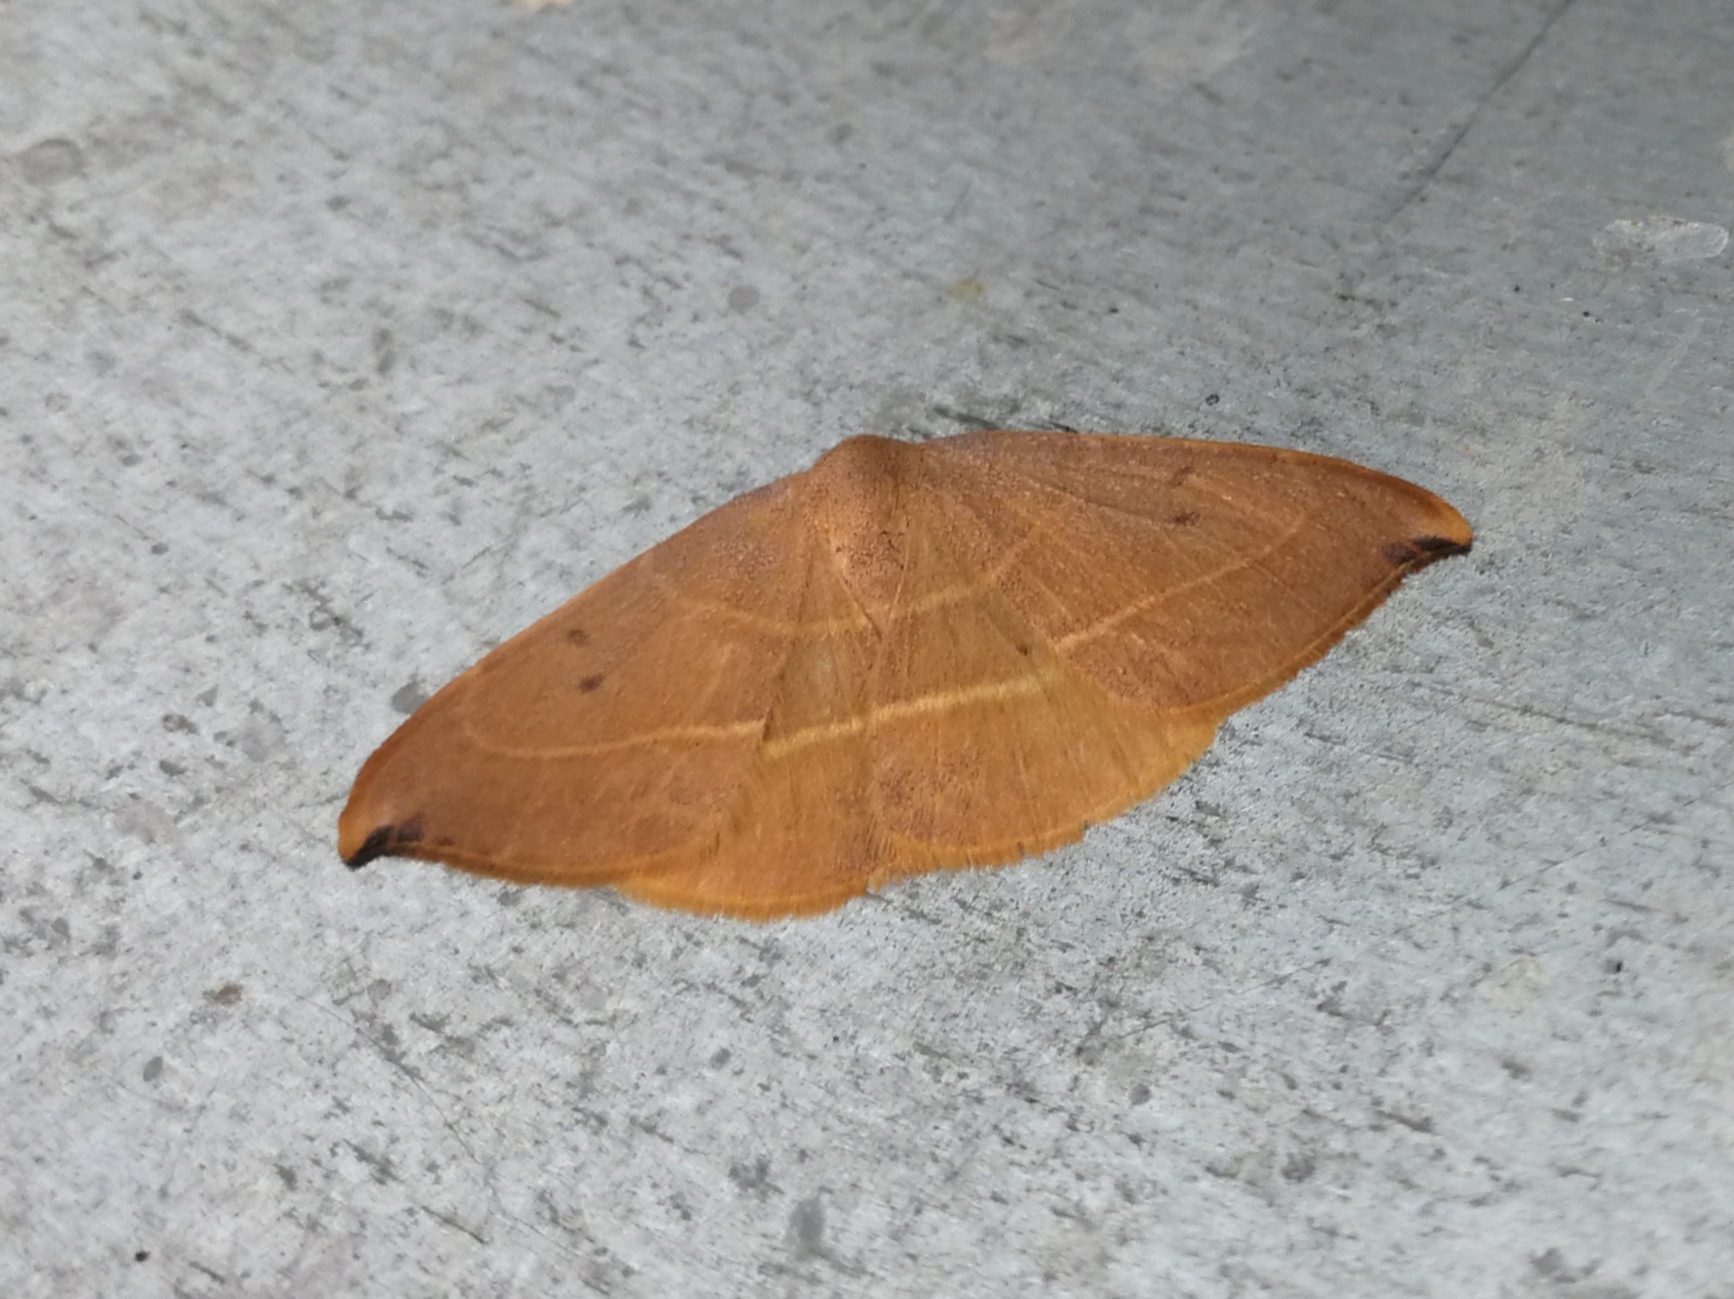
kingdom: Animalia
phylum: Arthropoda
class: Insecta
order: Lepidoptera
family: Drepanidae
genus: Watsonalla
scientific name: Watsonalla uncinula
